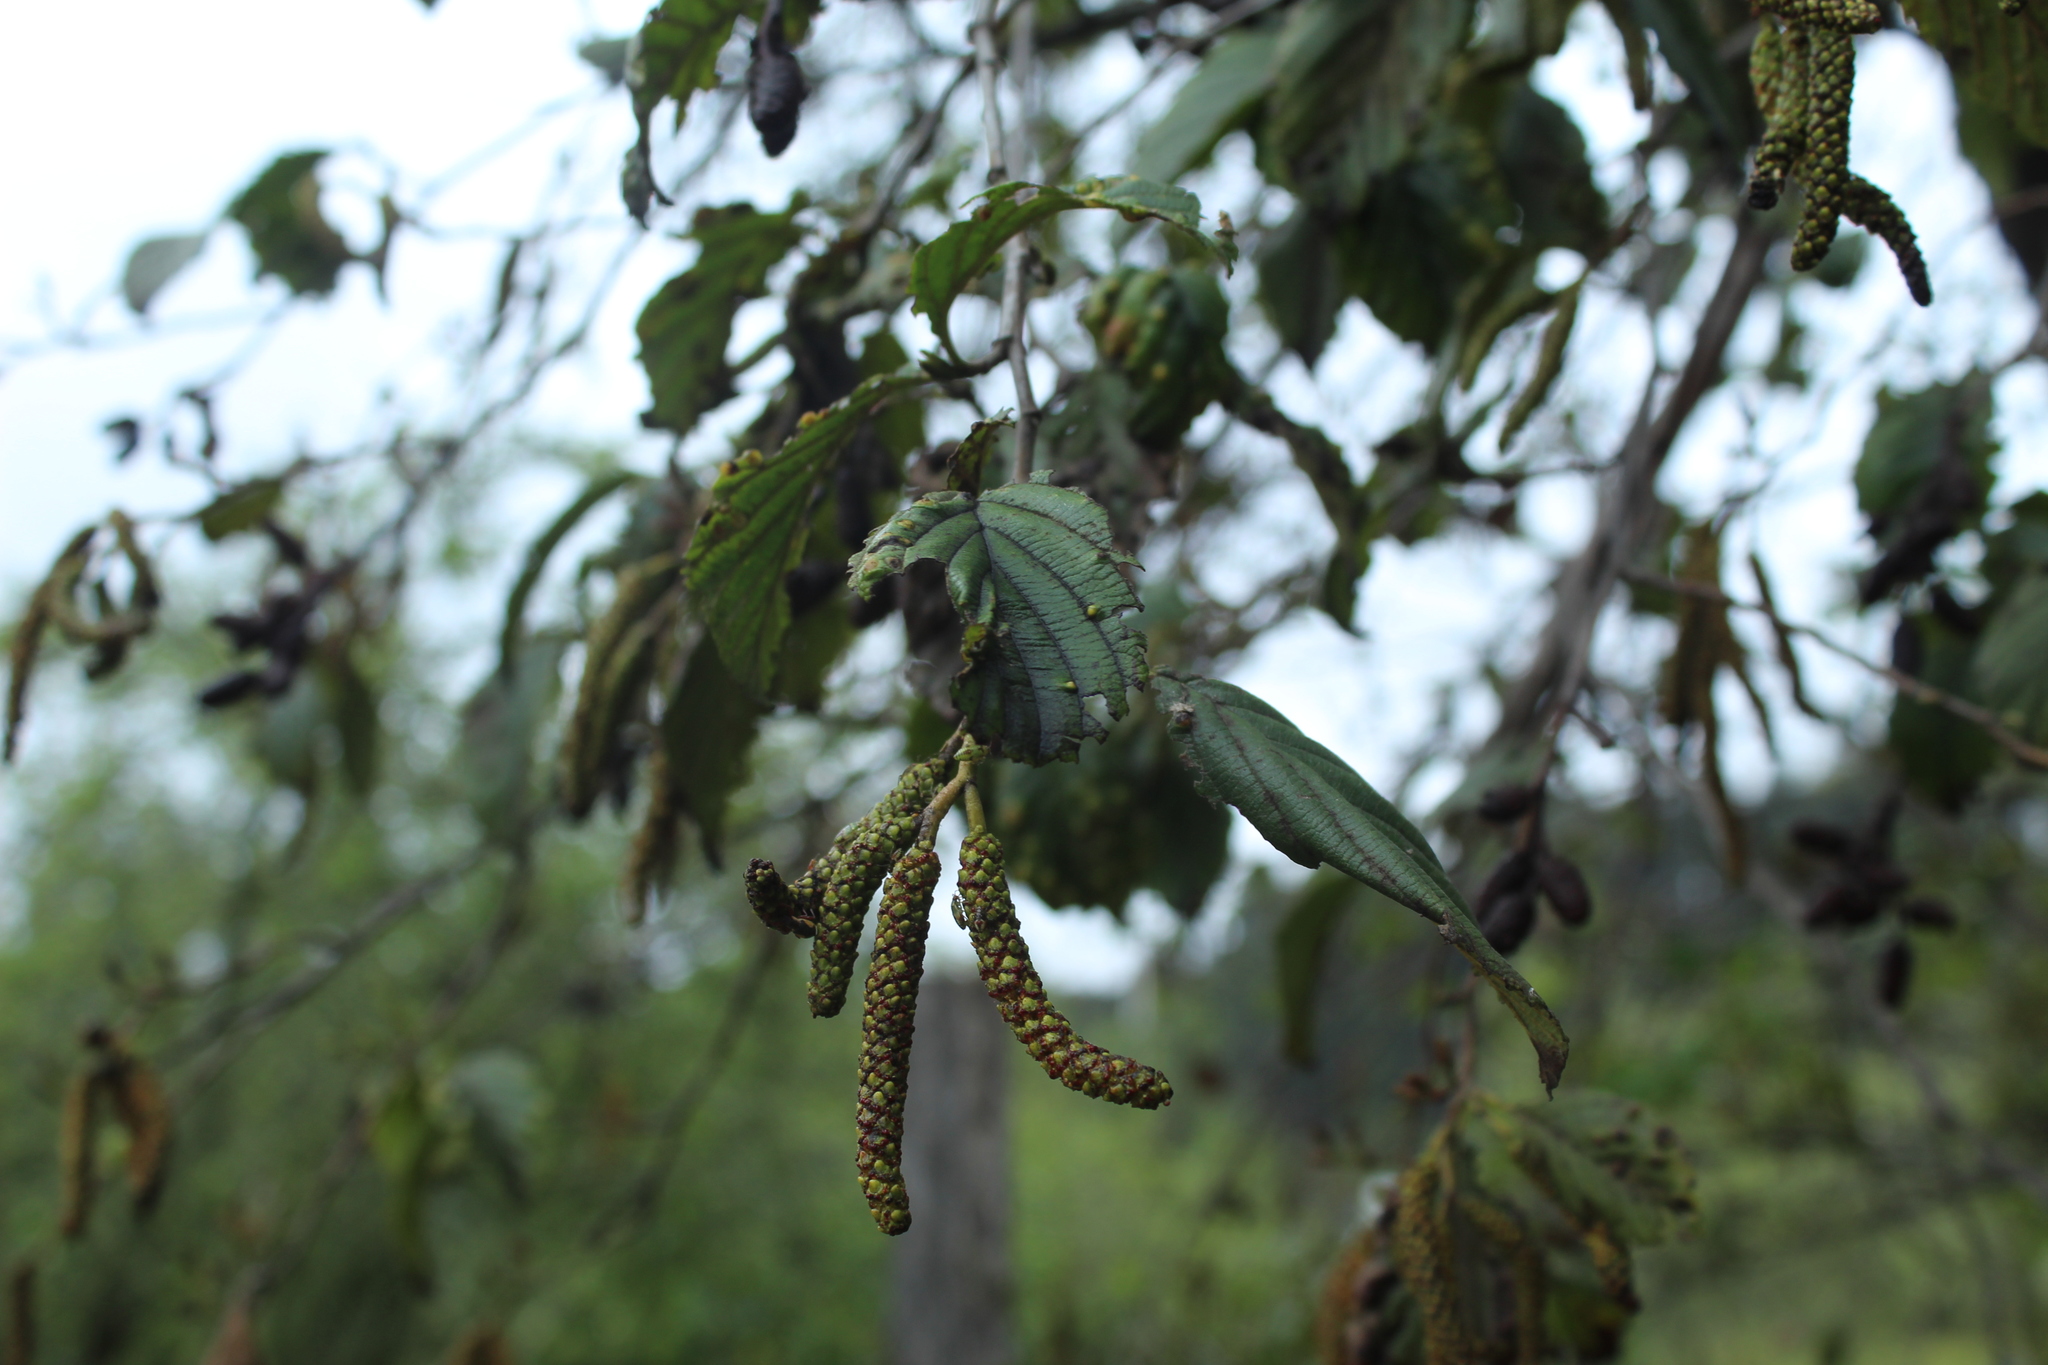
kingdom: Plantae
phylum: Tracheophyta
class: Magnoliopsida
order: Fagales
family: Betulaceae
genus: Alnus
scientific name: Alnus acuminata
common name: Alder
